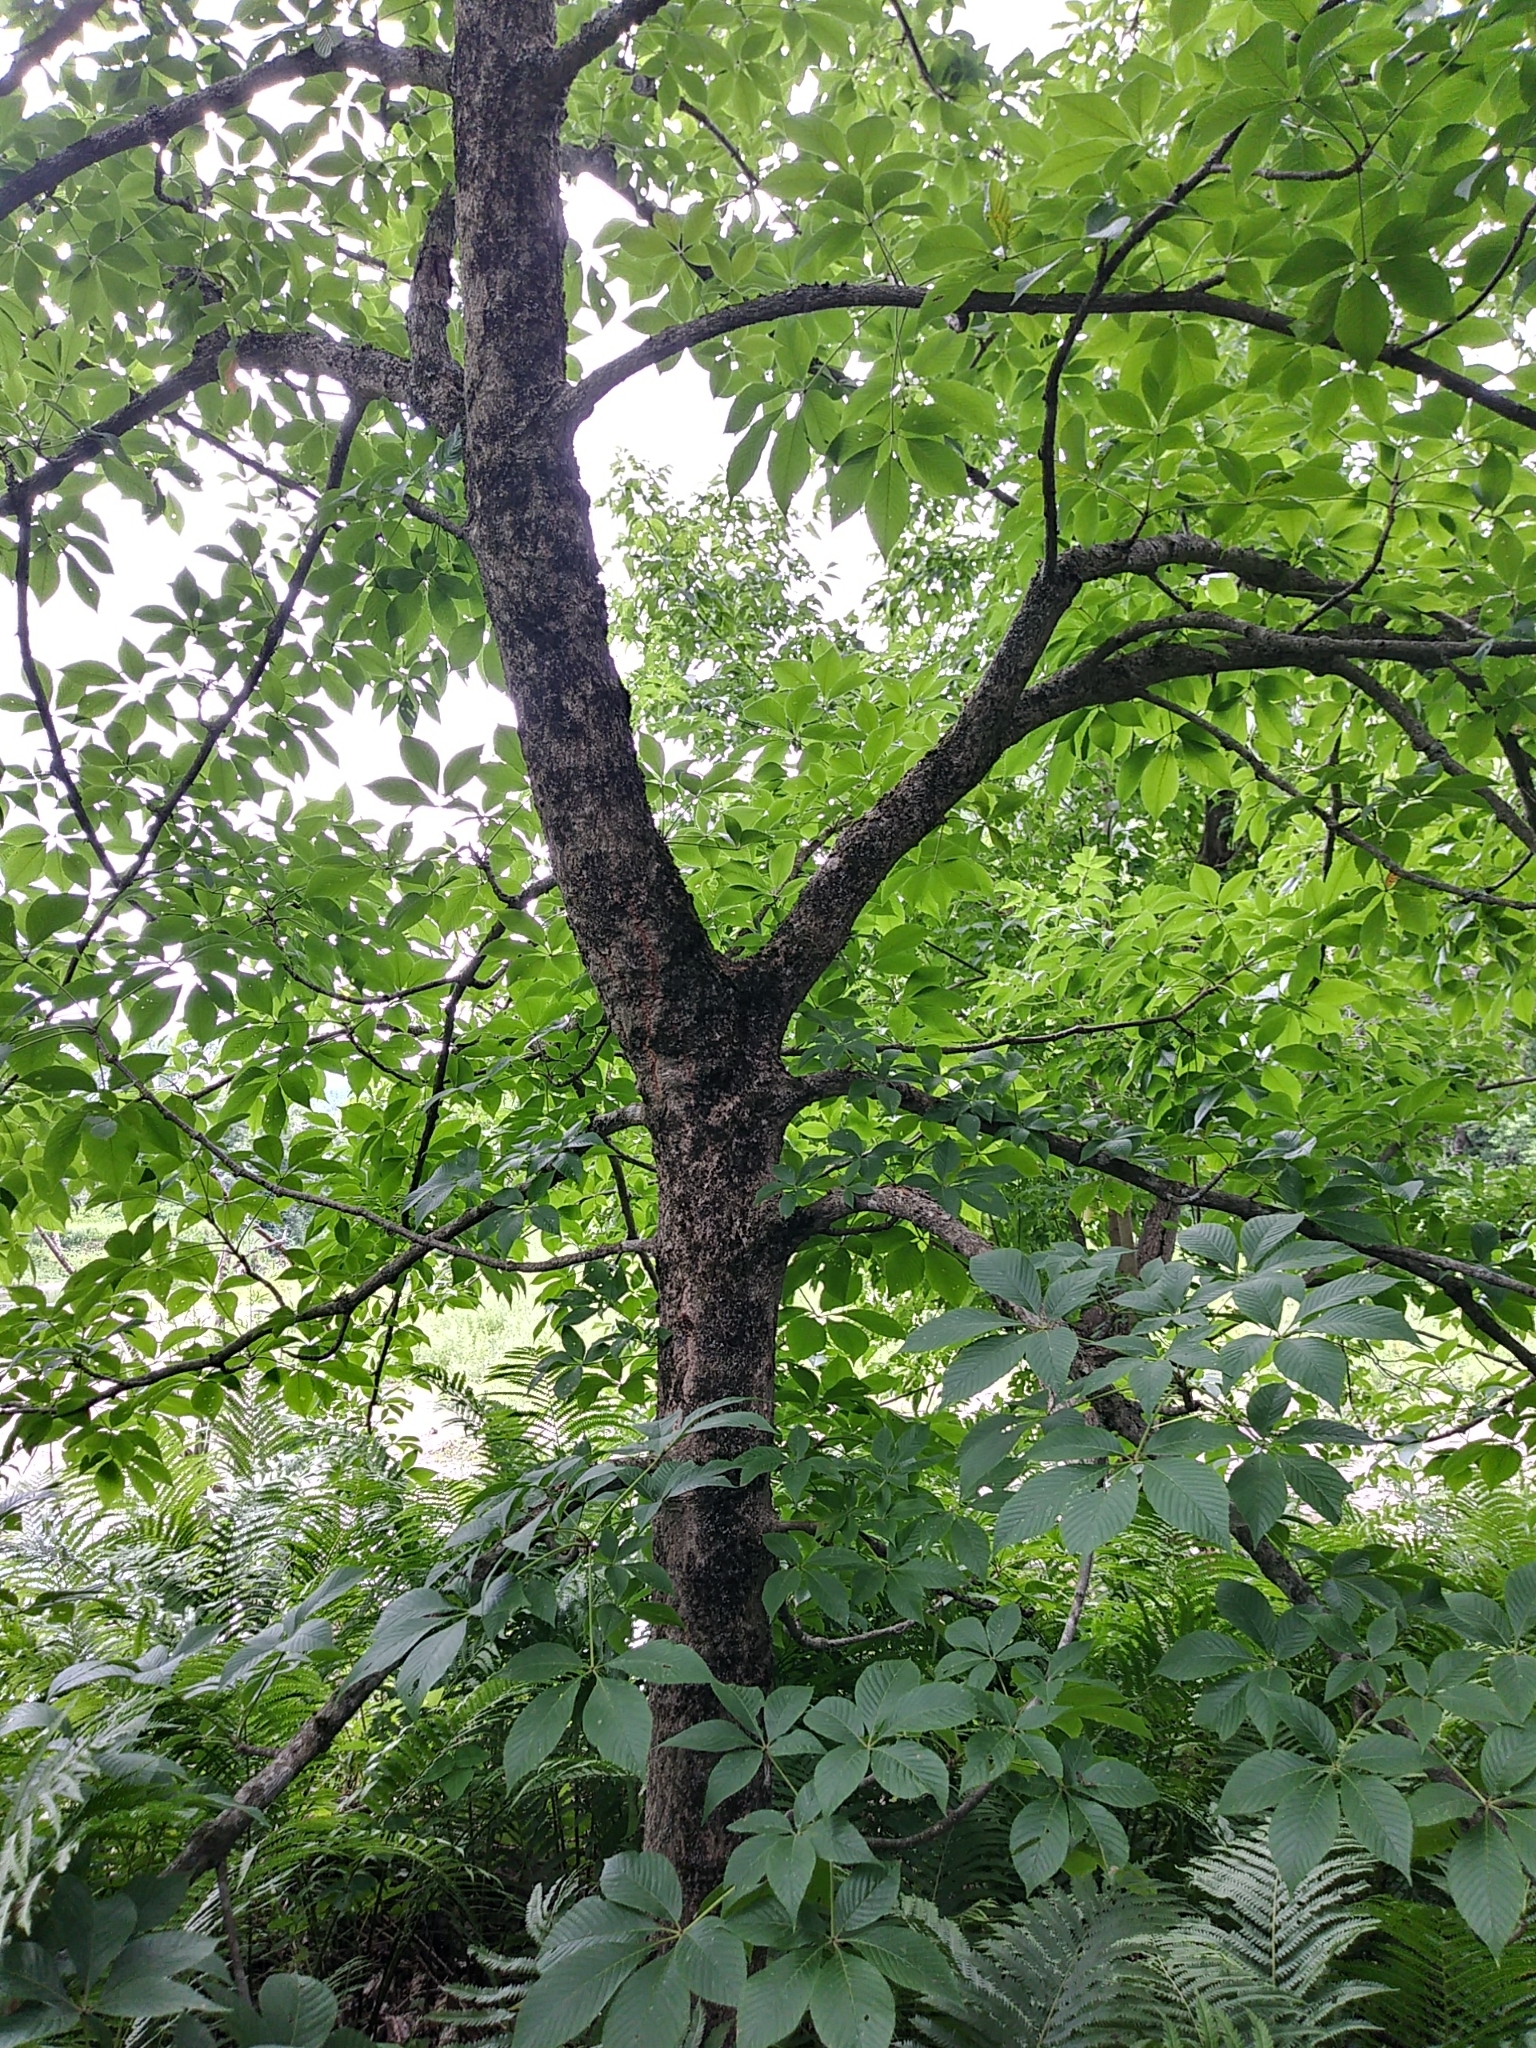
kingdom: Plantae
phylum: Tracheophyta
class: Magnoliopsida
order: Sapindales
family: Sapindaceae
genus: Aesculus
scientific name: Aesculus hippocastanum
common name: Horse-chestnut
